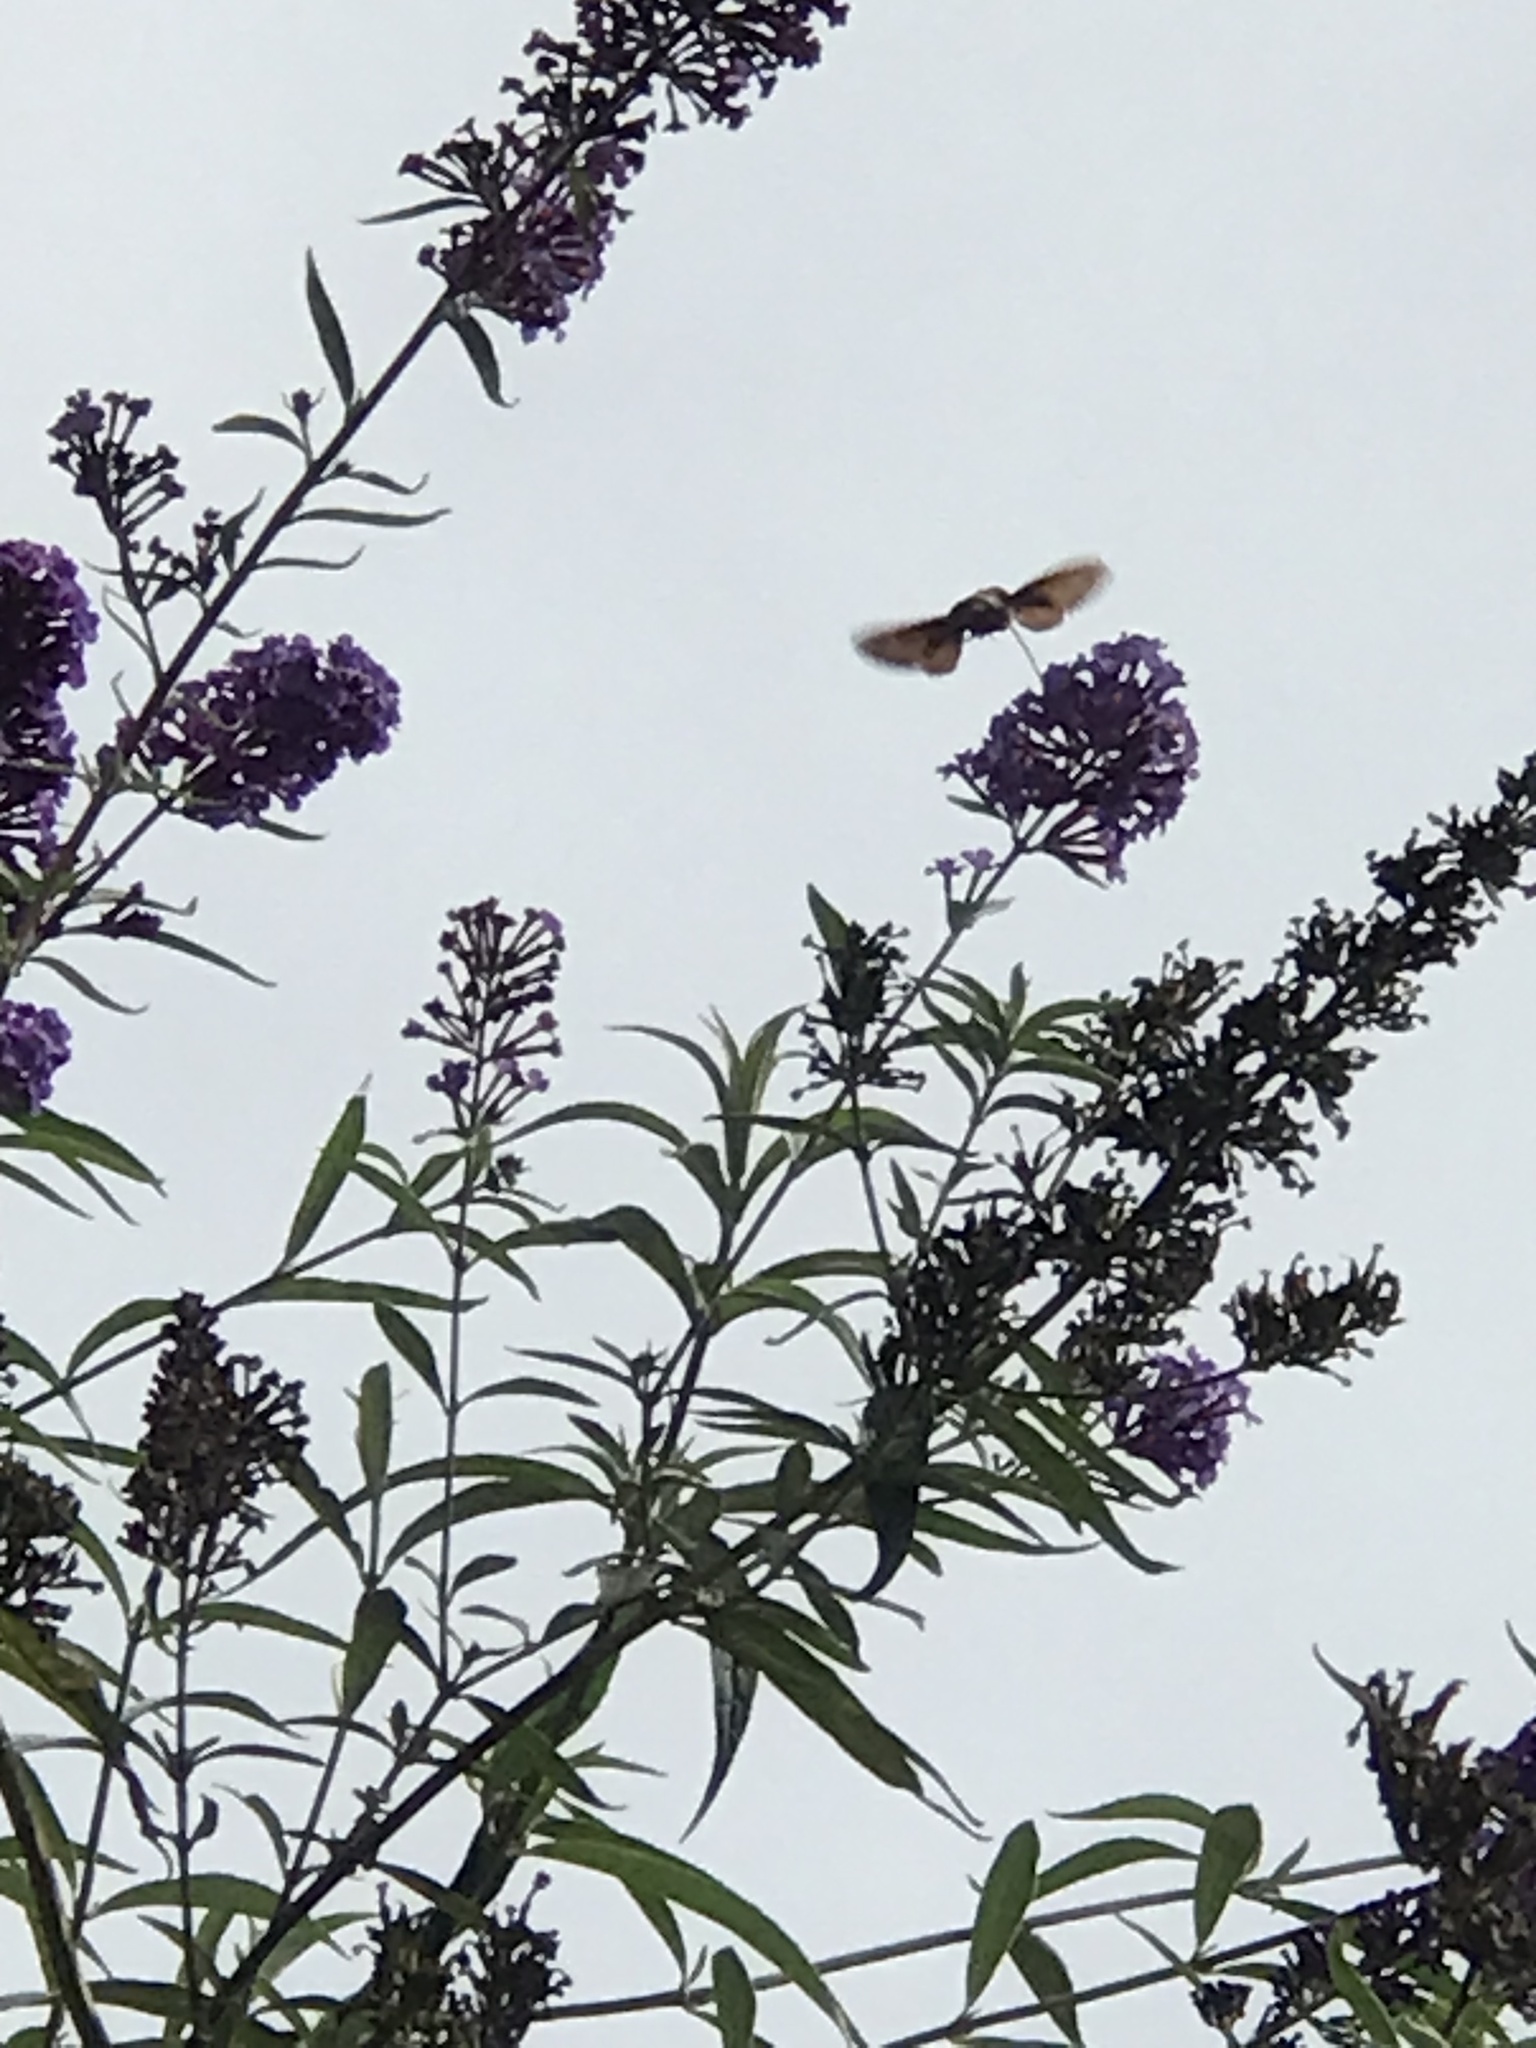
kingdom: Animalia
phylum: Arthropoda
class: Insecta
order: Lepidoptera
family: Sphingidae
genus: Macroglossum
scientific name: Macroglossum stellatarum
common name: Humming-bird hawk-moth
